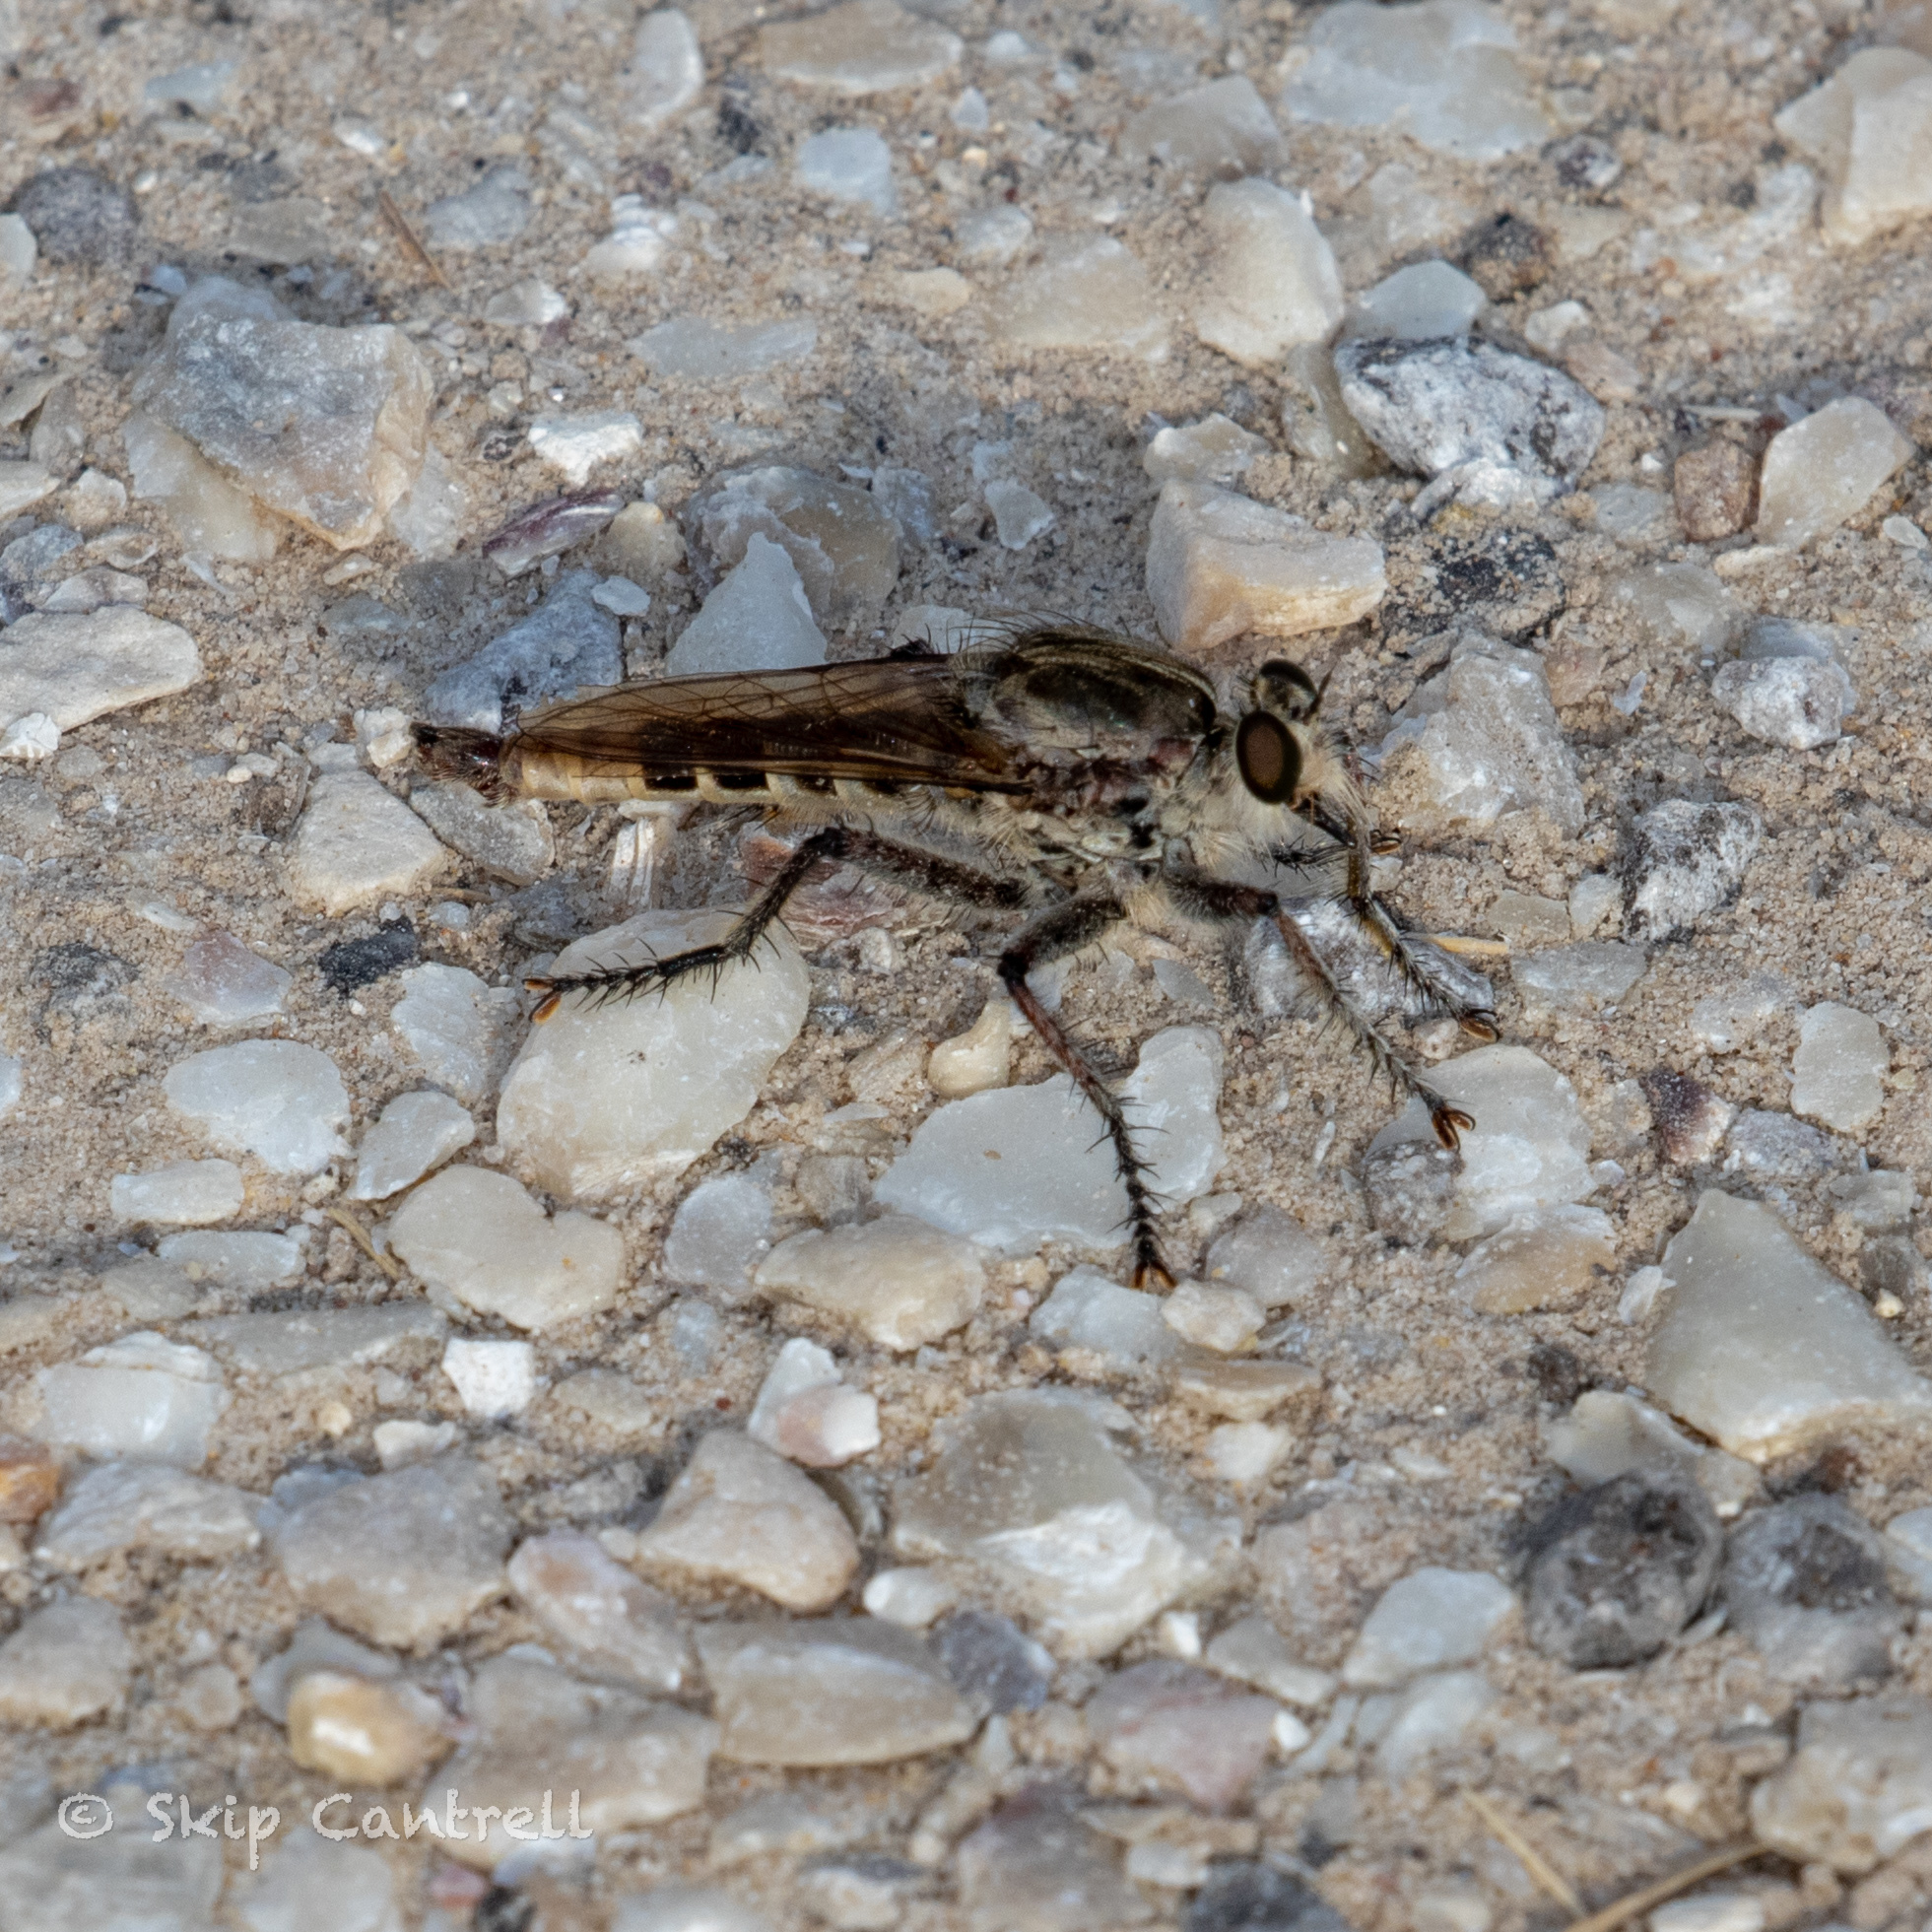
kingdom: Animalia
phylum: Arthropoda
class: Insecta
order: Diptera
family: Asilidae
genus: Triorla
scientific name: Triorla interrupta
